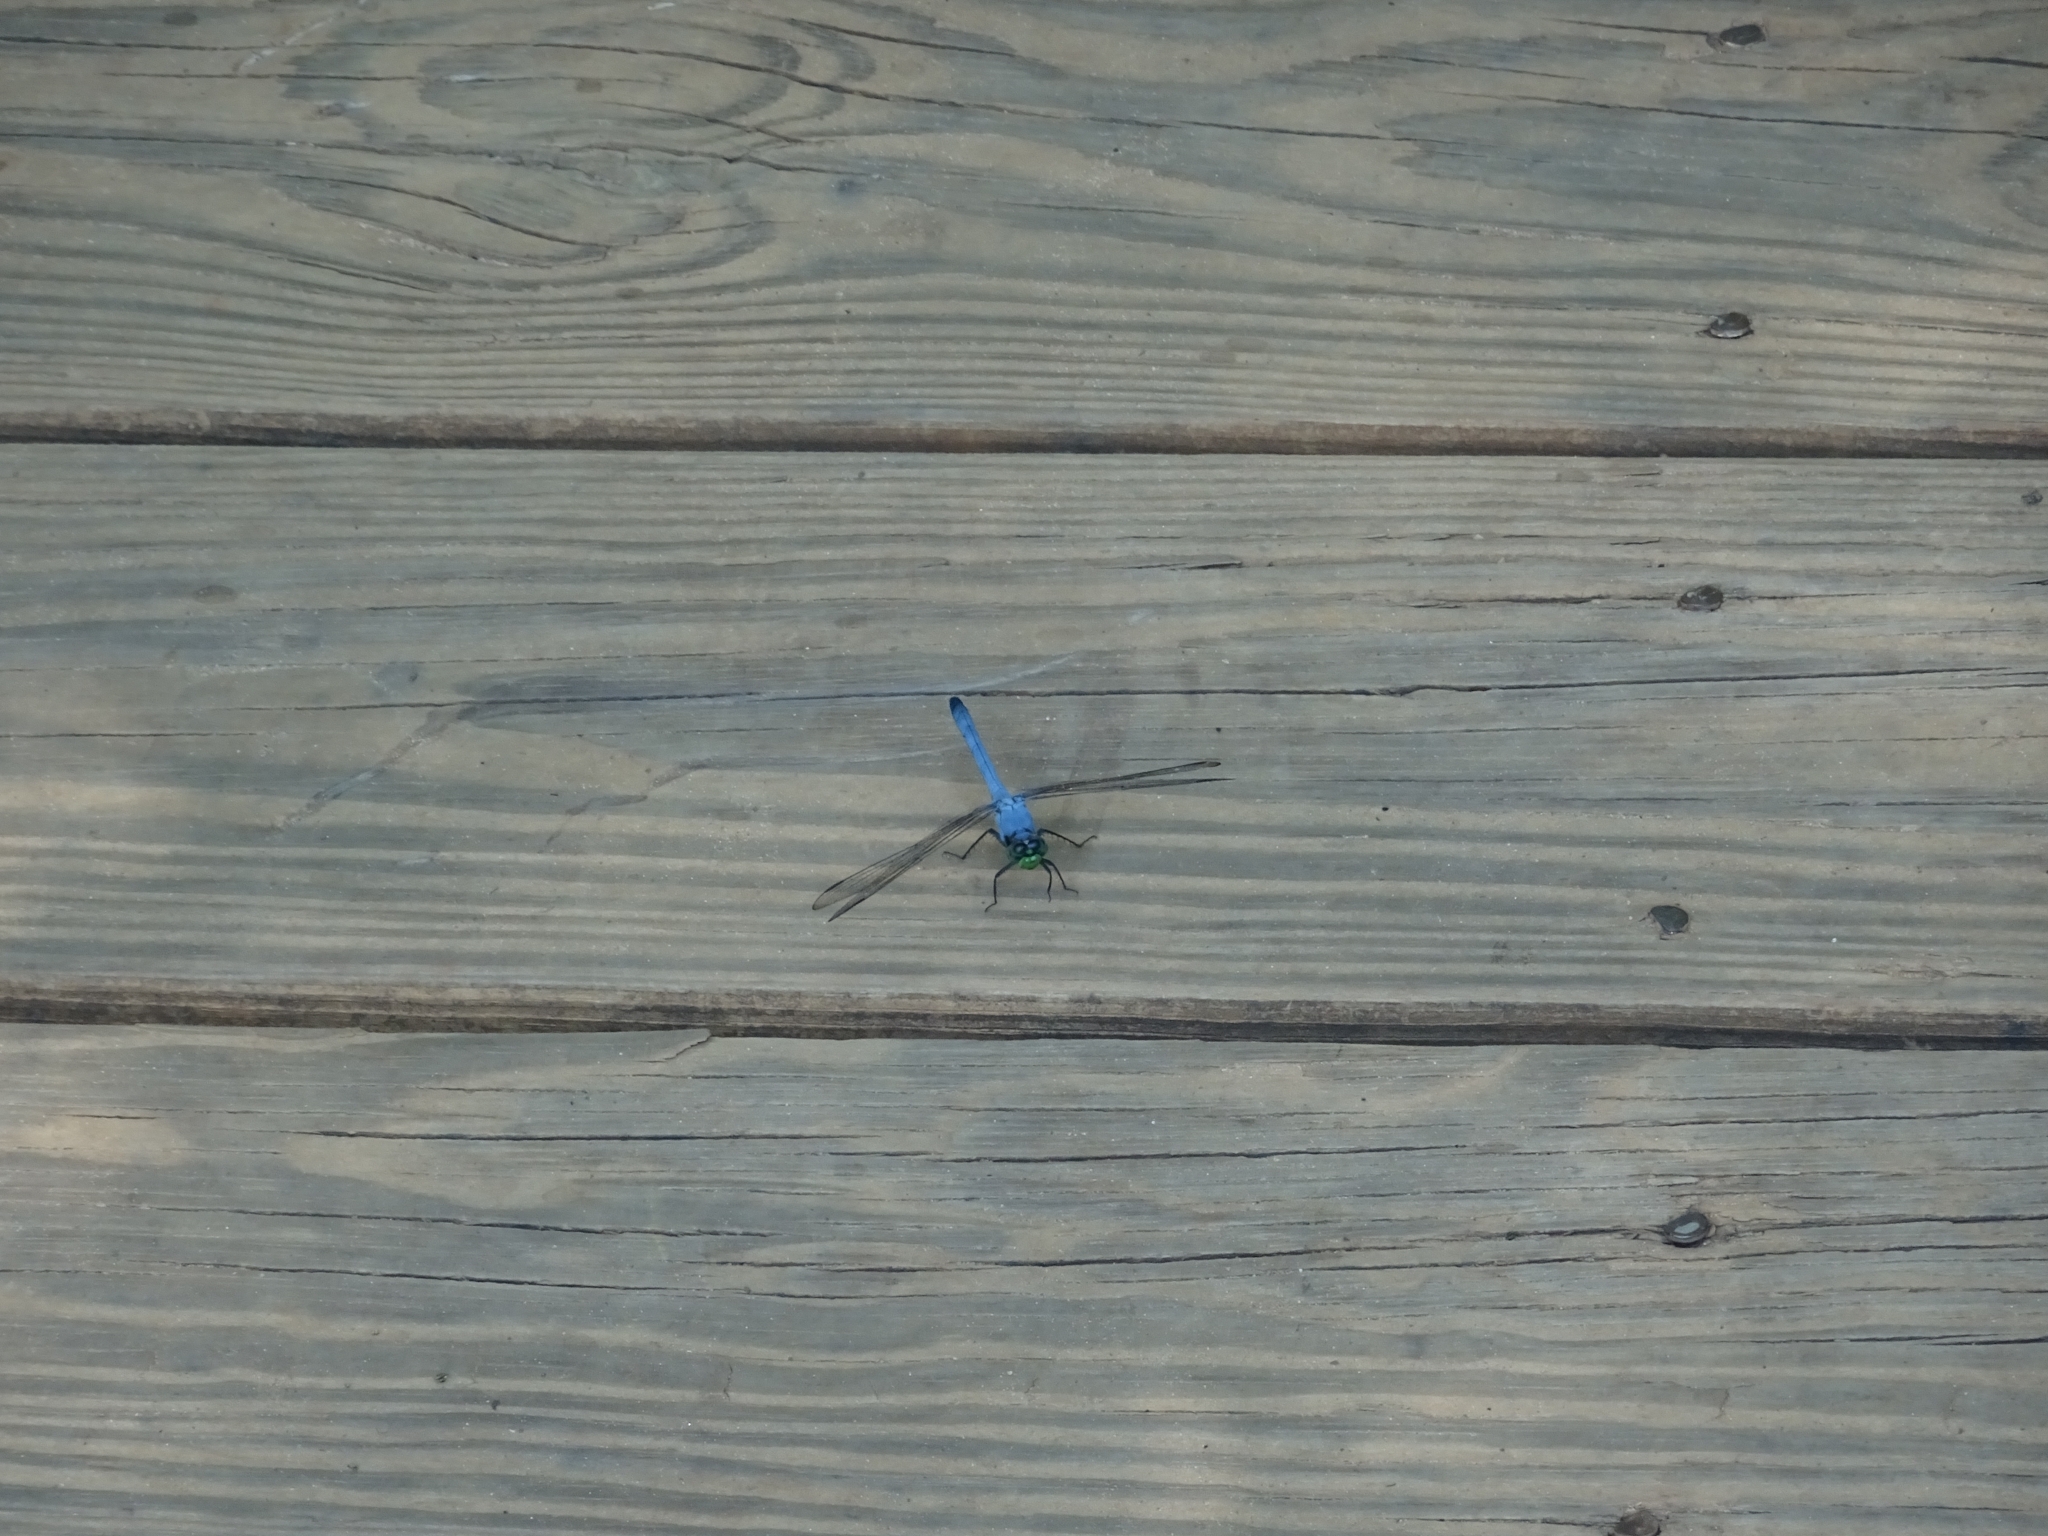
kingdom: Animalia
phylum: Arthropoda
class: Insecta
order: Odonata
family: Libellulidae
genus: Erythemis
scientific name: Erythemis simplicicollis
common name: Eastern pondhawk
